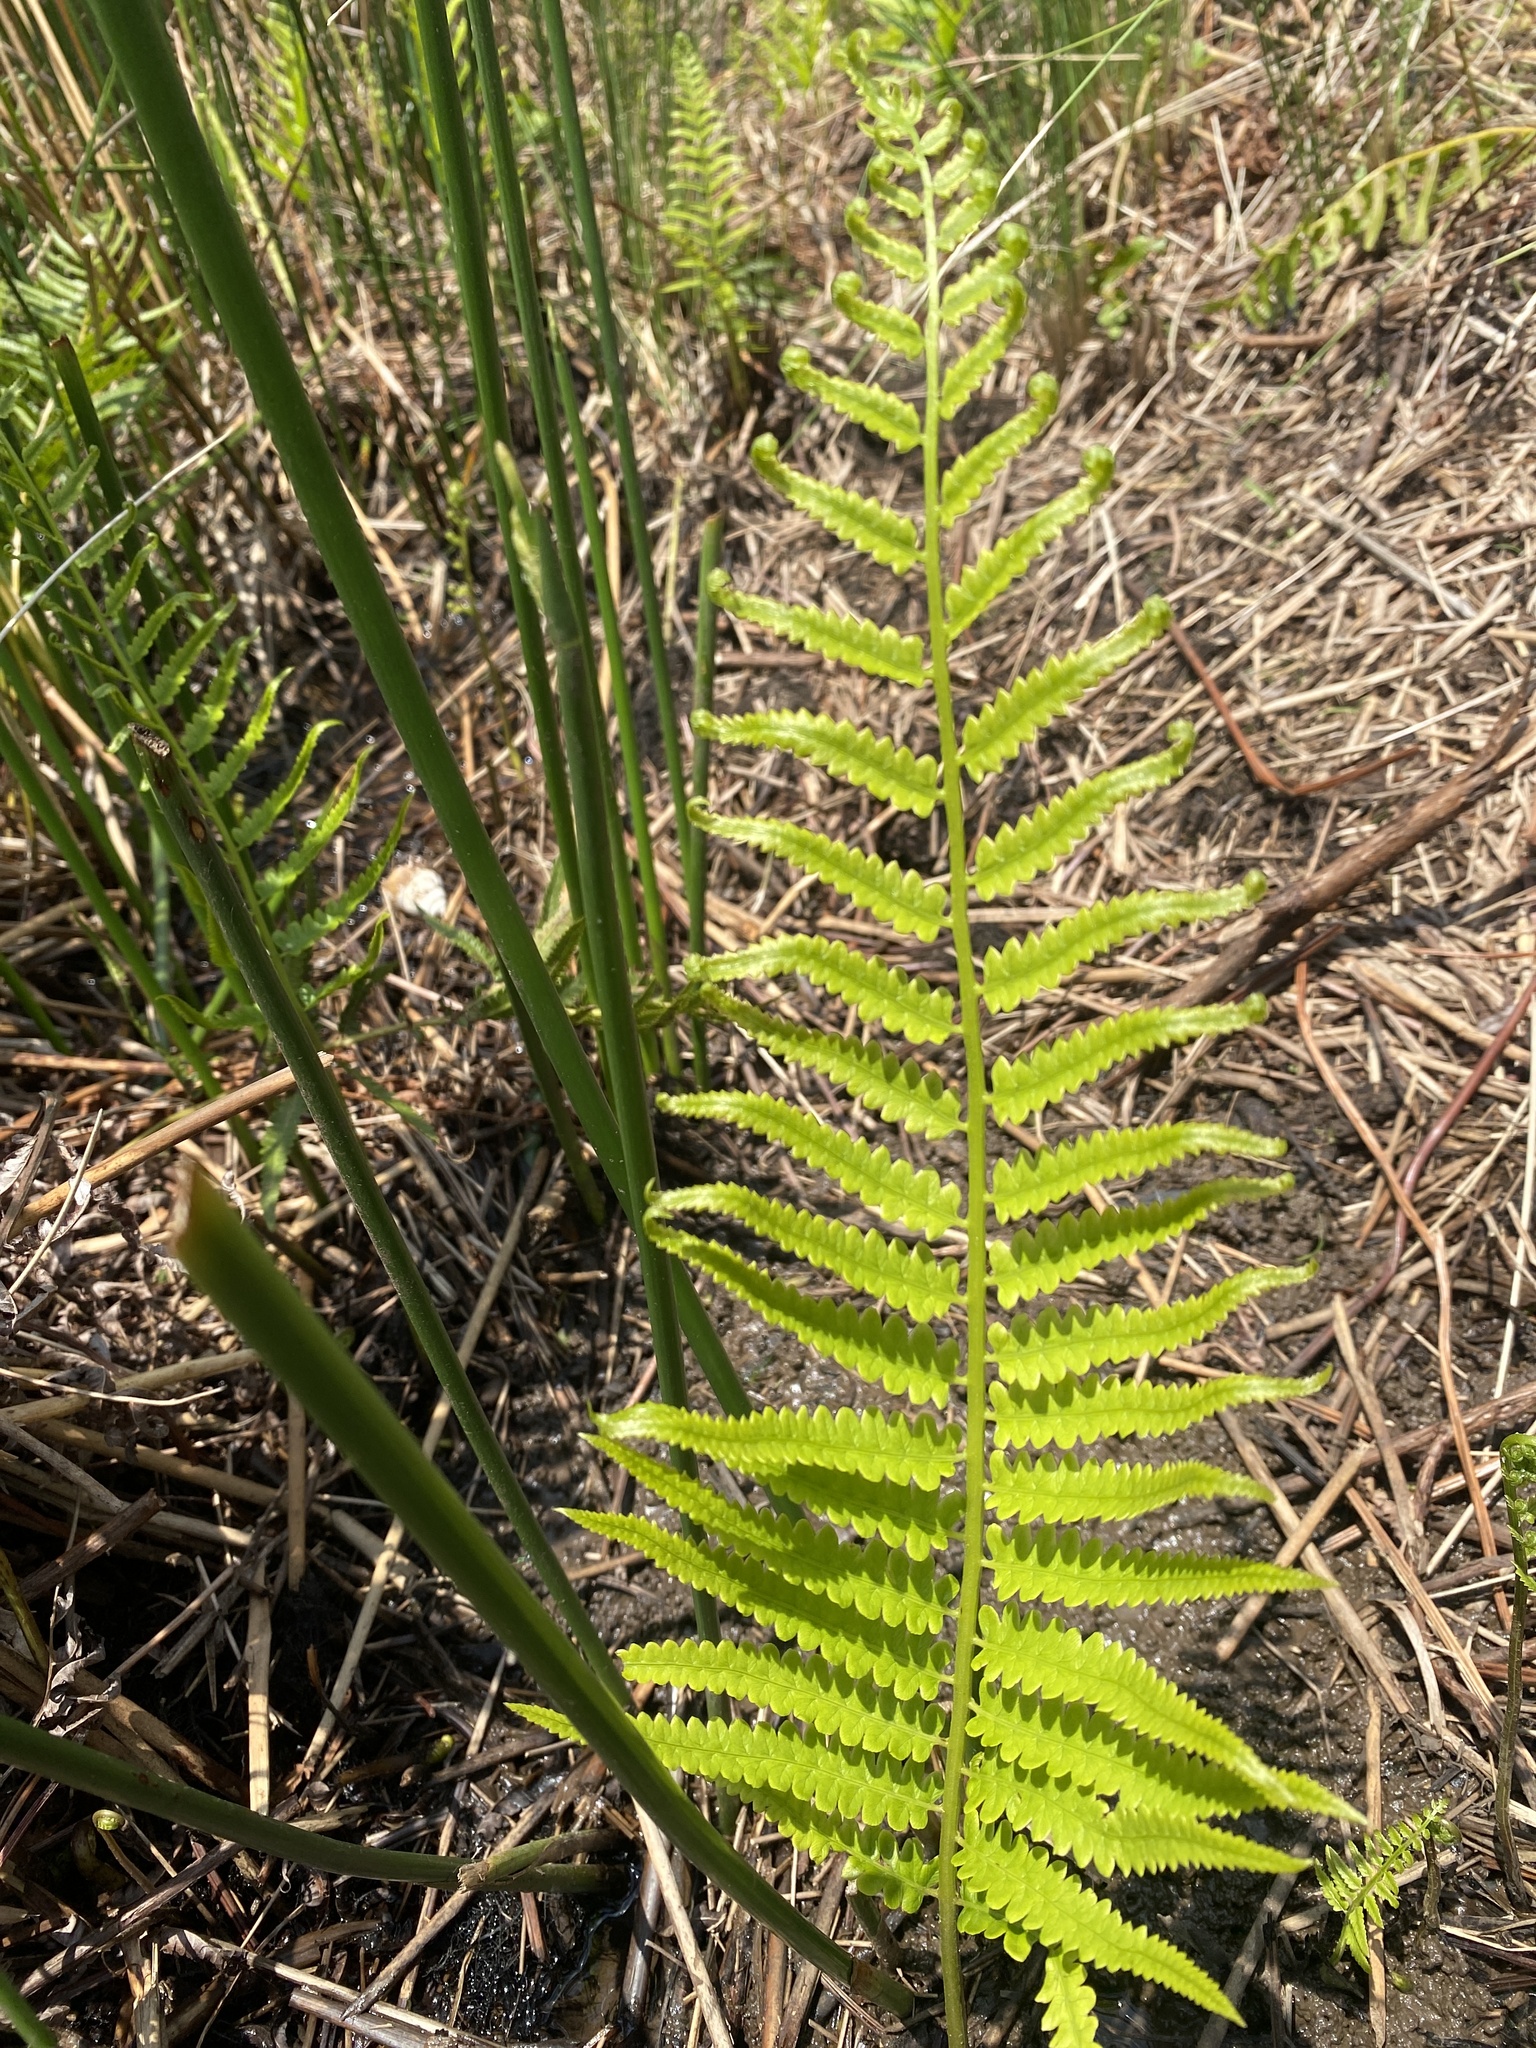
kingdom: Plantae
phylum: Tracheophyta
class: Polypodiopsida
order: Polypodiales
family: Thelypteridaceae
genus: Cyclosorus
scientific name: Cyclosorus interruptus
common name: Neke fern
